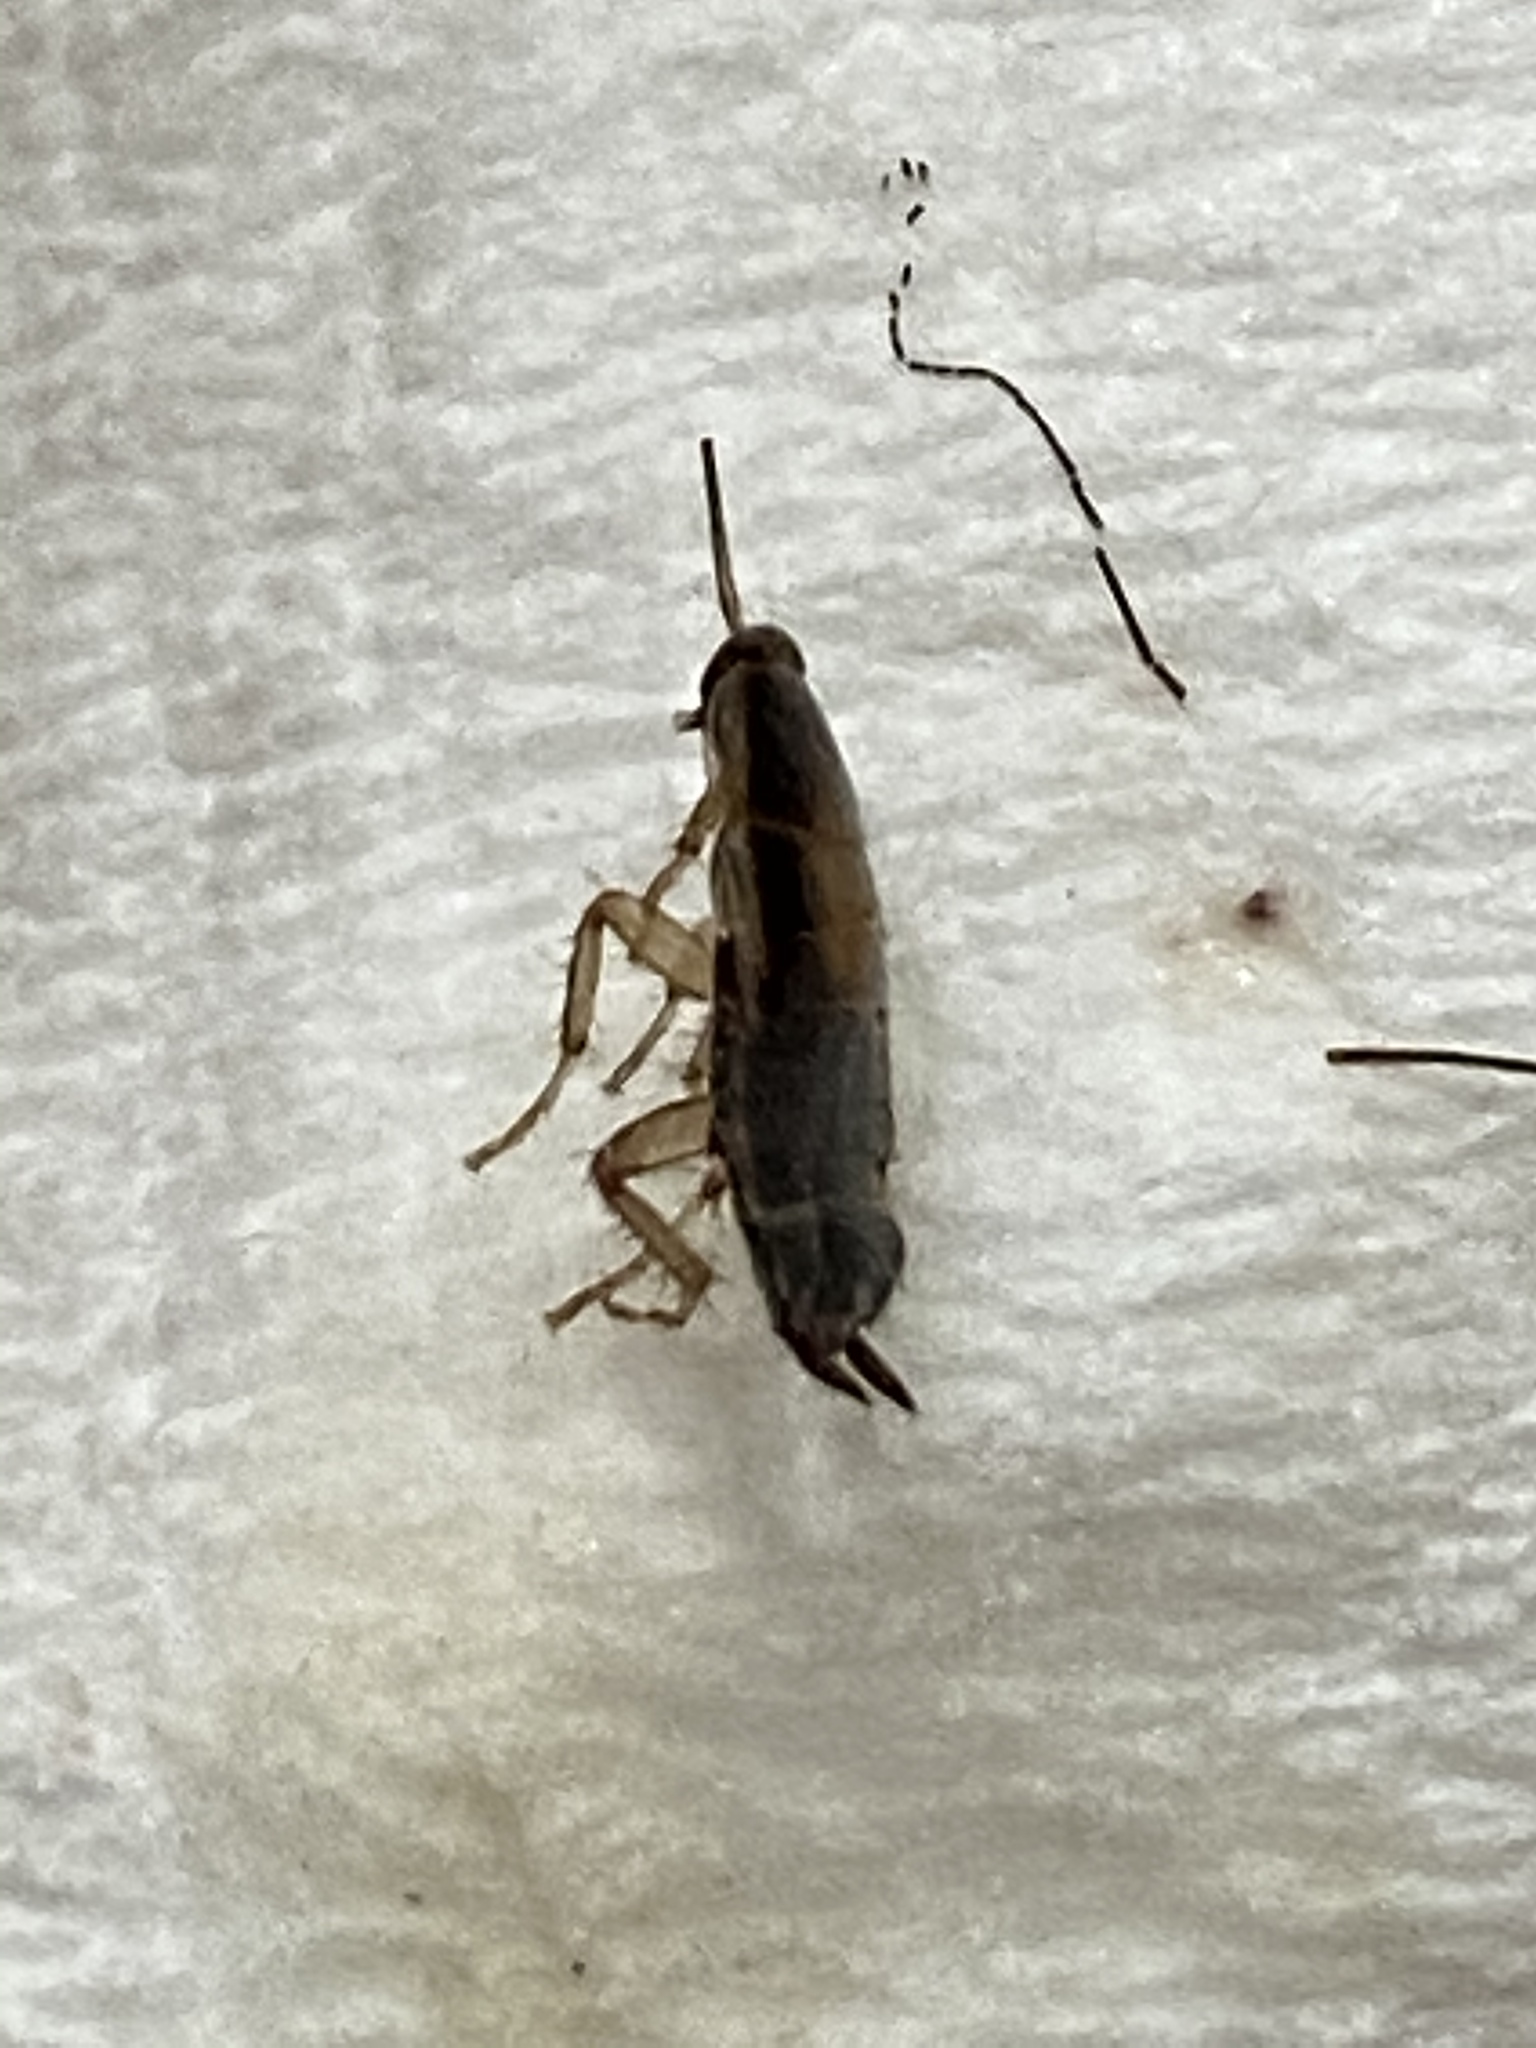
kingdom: Animalia
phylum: Arthropoda
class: Insecta
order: Blattodea
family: Ectobiidae
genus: Blattella
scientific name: Blattella germanica
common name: German cockroach
